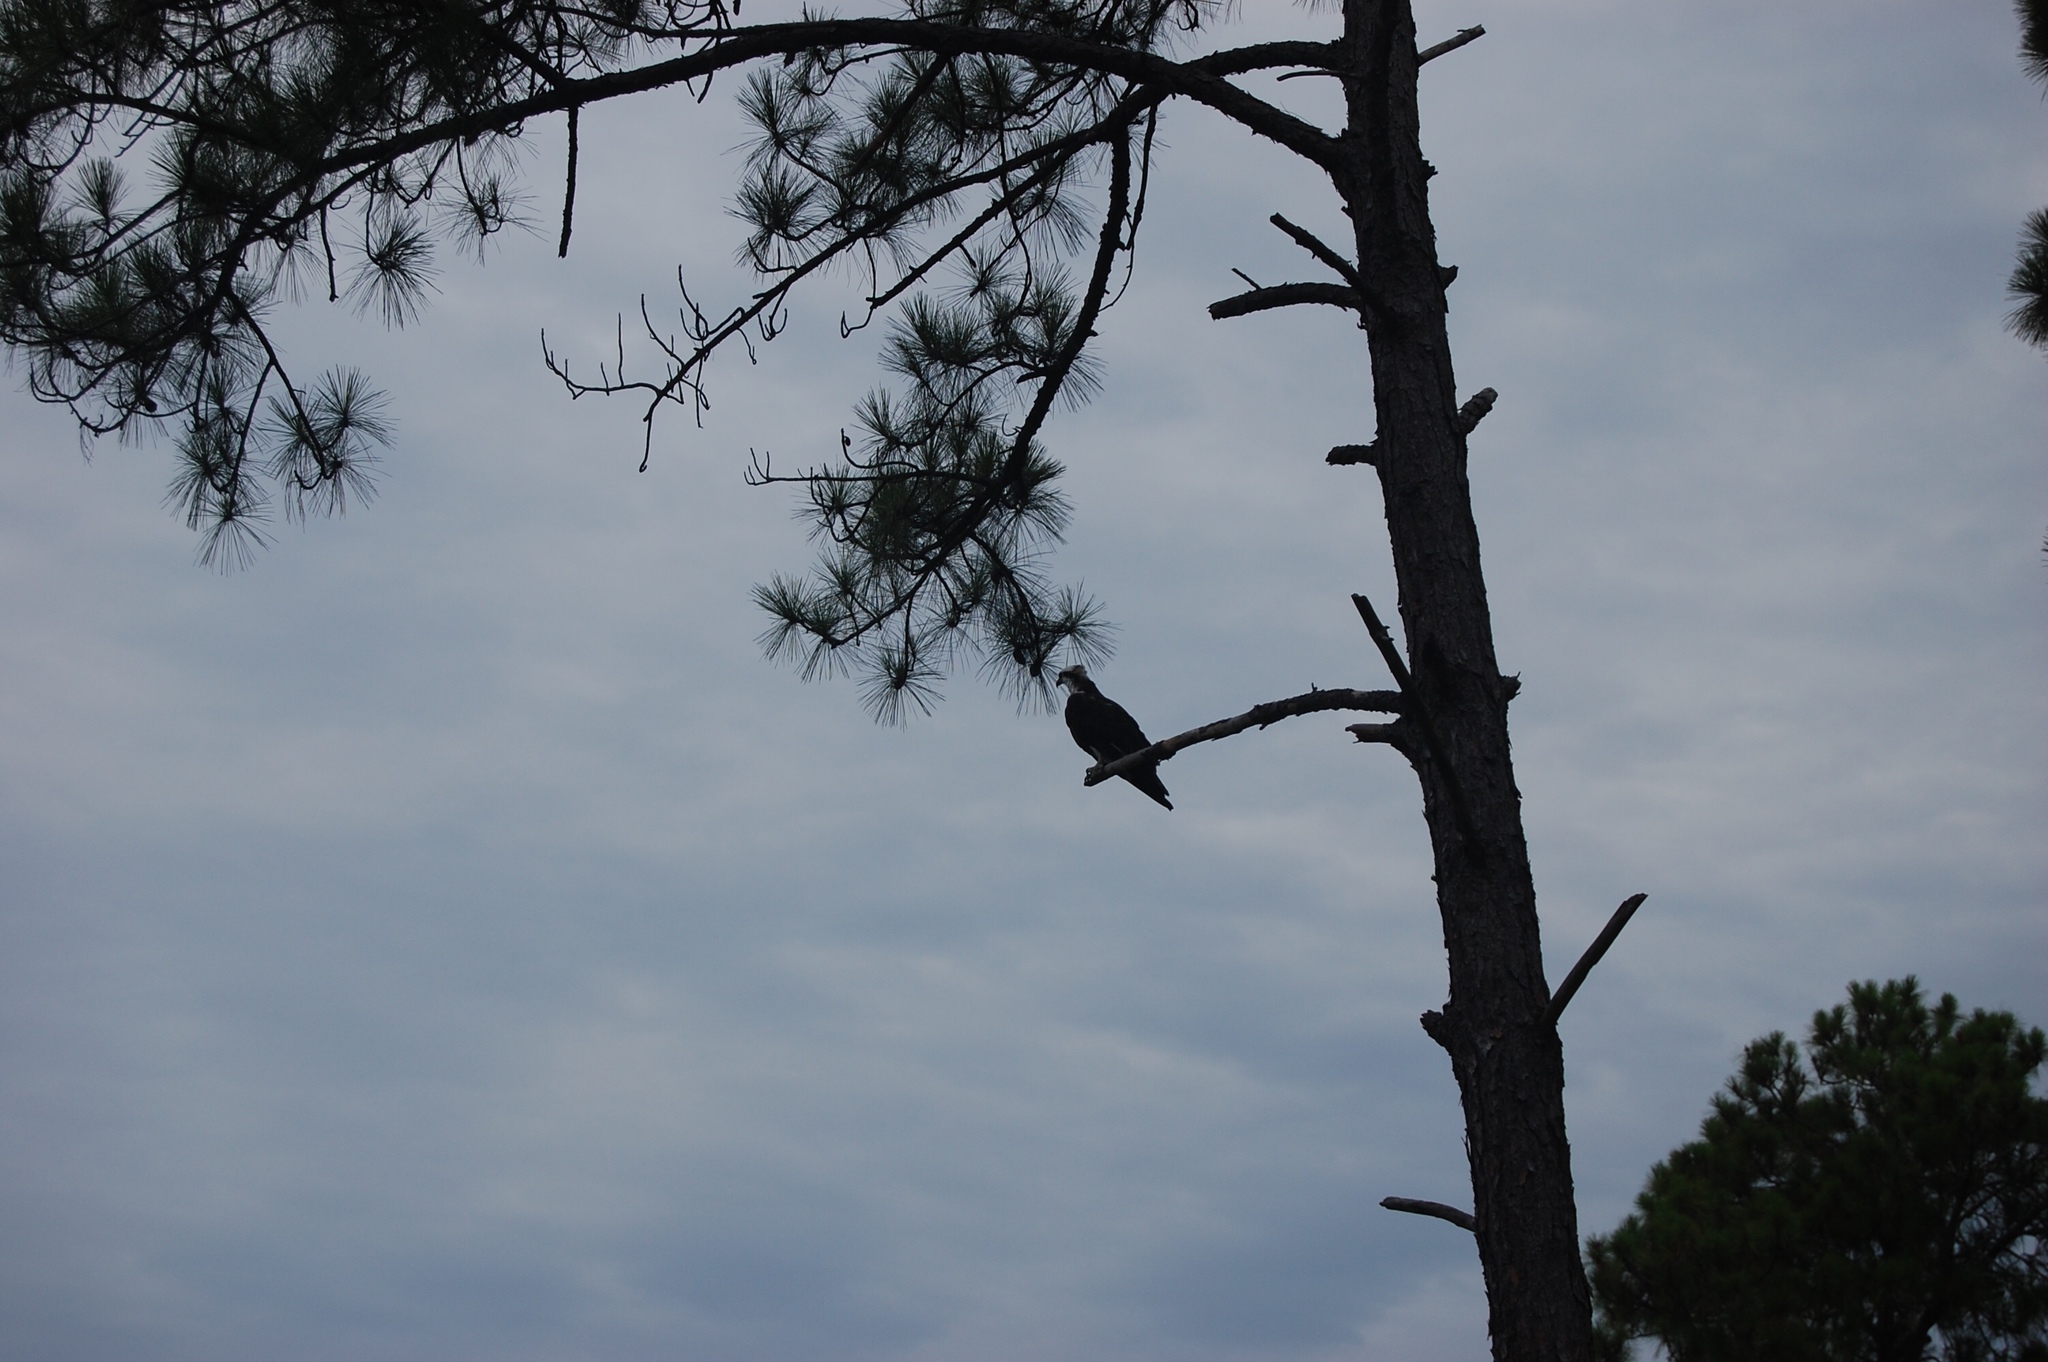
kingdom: Animalia
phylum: Chordata
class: Aves
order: Accipitriformes
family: Pandionidae
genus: Pandion
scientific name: Pandion haliaetus
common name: Osprey
